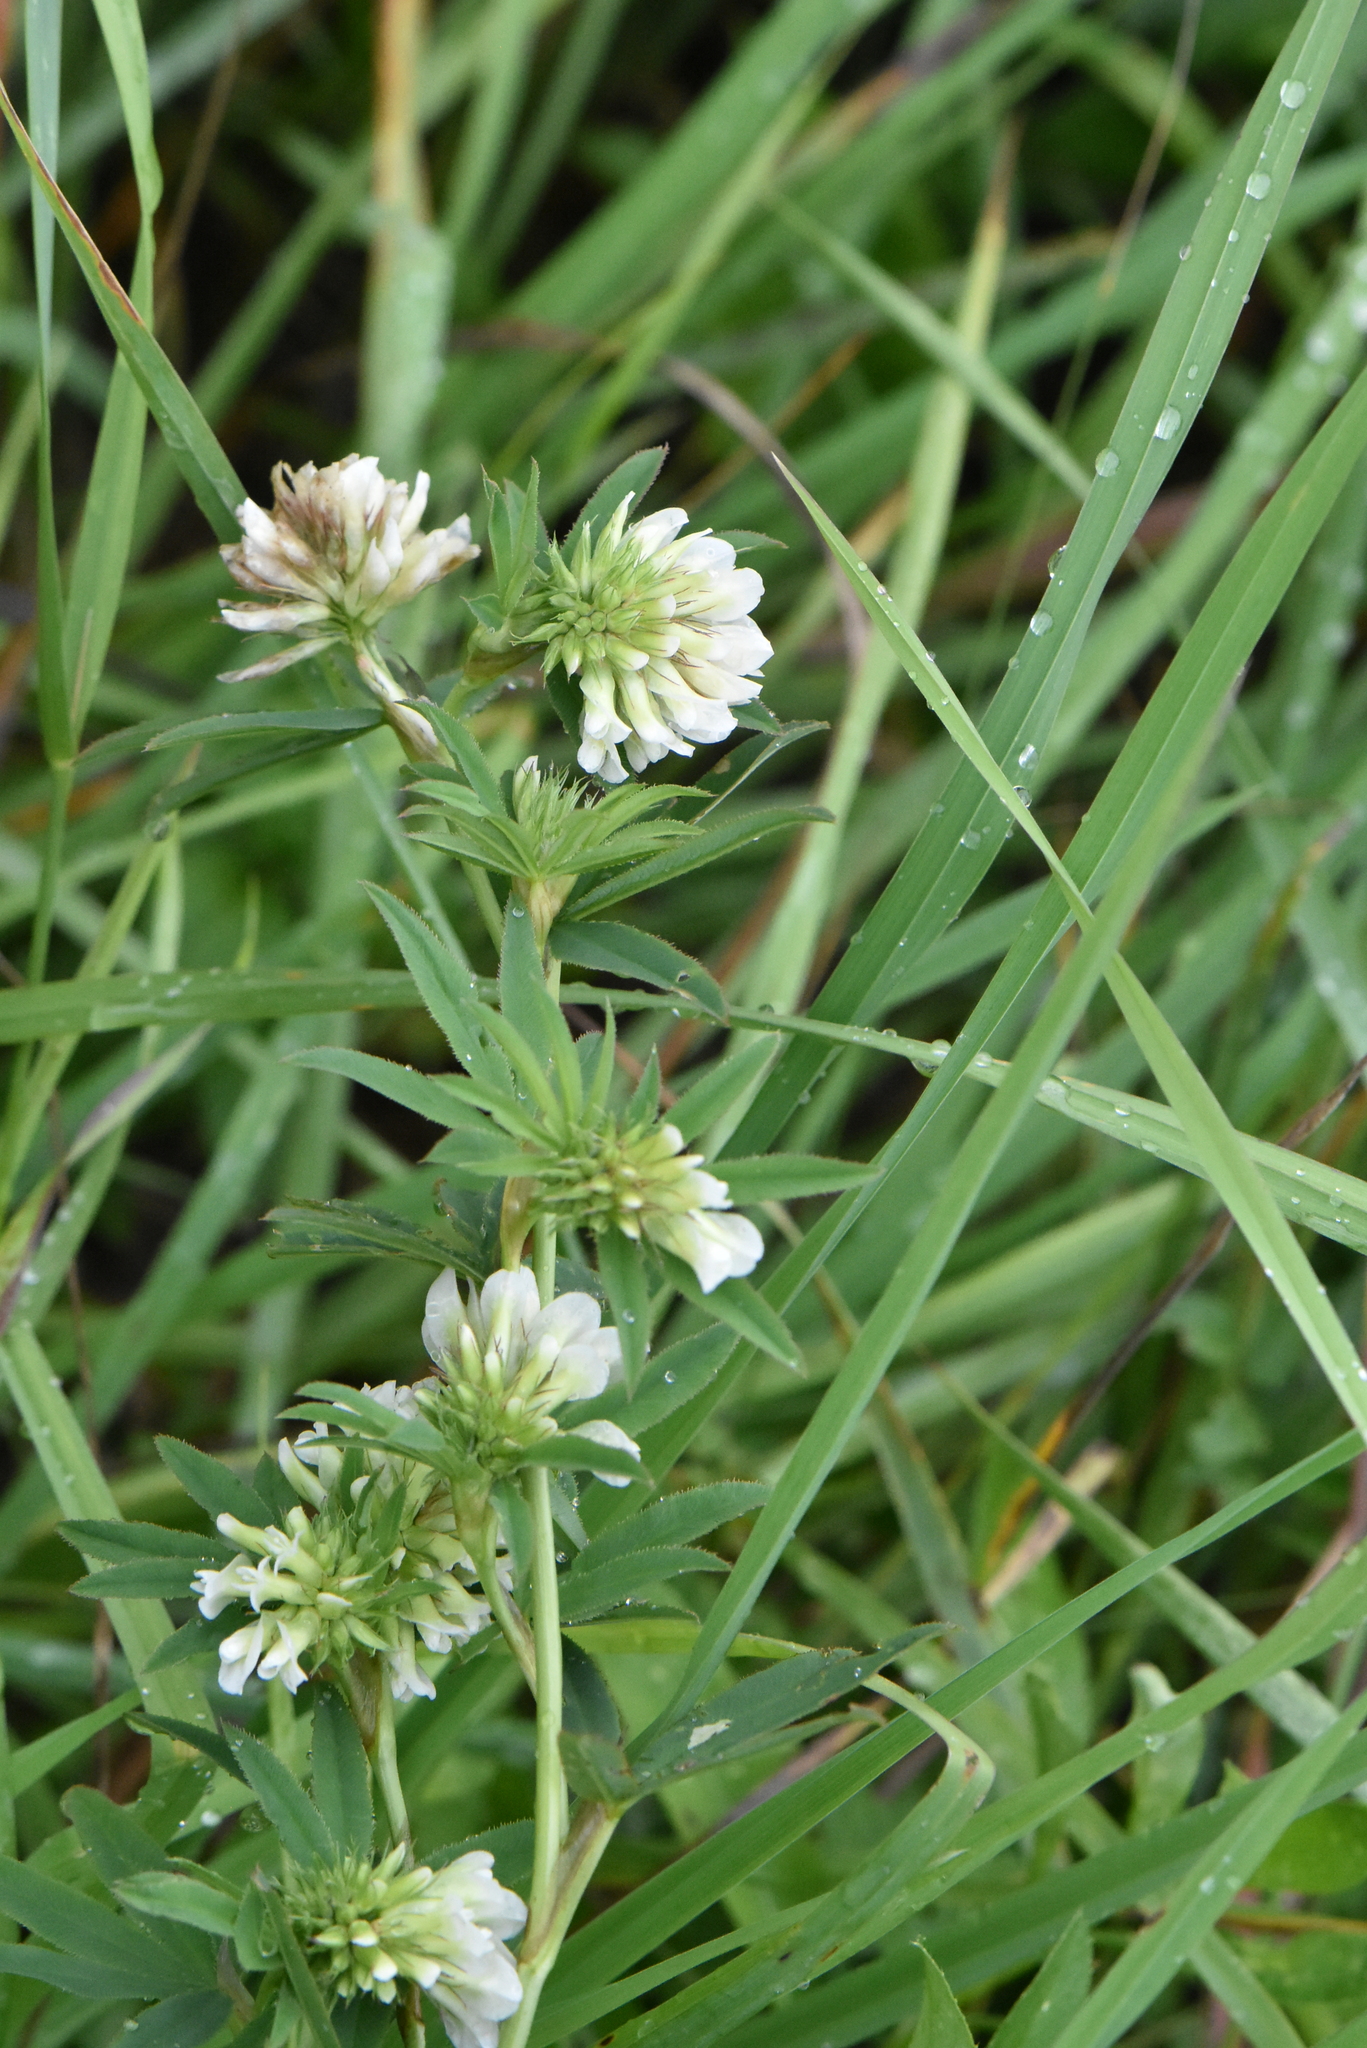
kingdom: Plantae
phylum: Tracheophyta
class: Magnoliopsida
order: Fabales
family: Fabaceae
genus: Trifolium
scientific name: Trifolium lupinaster
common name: Lupine clover
